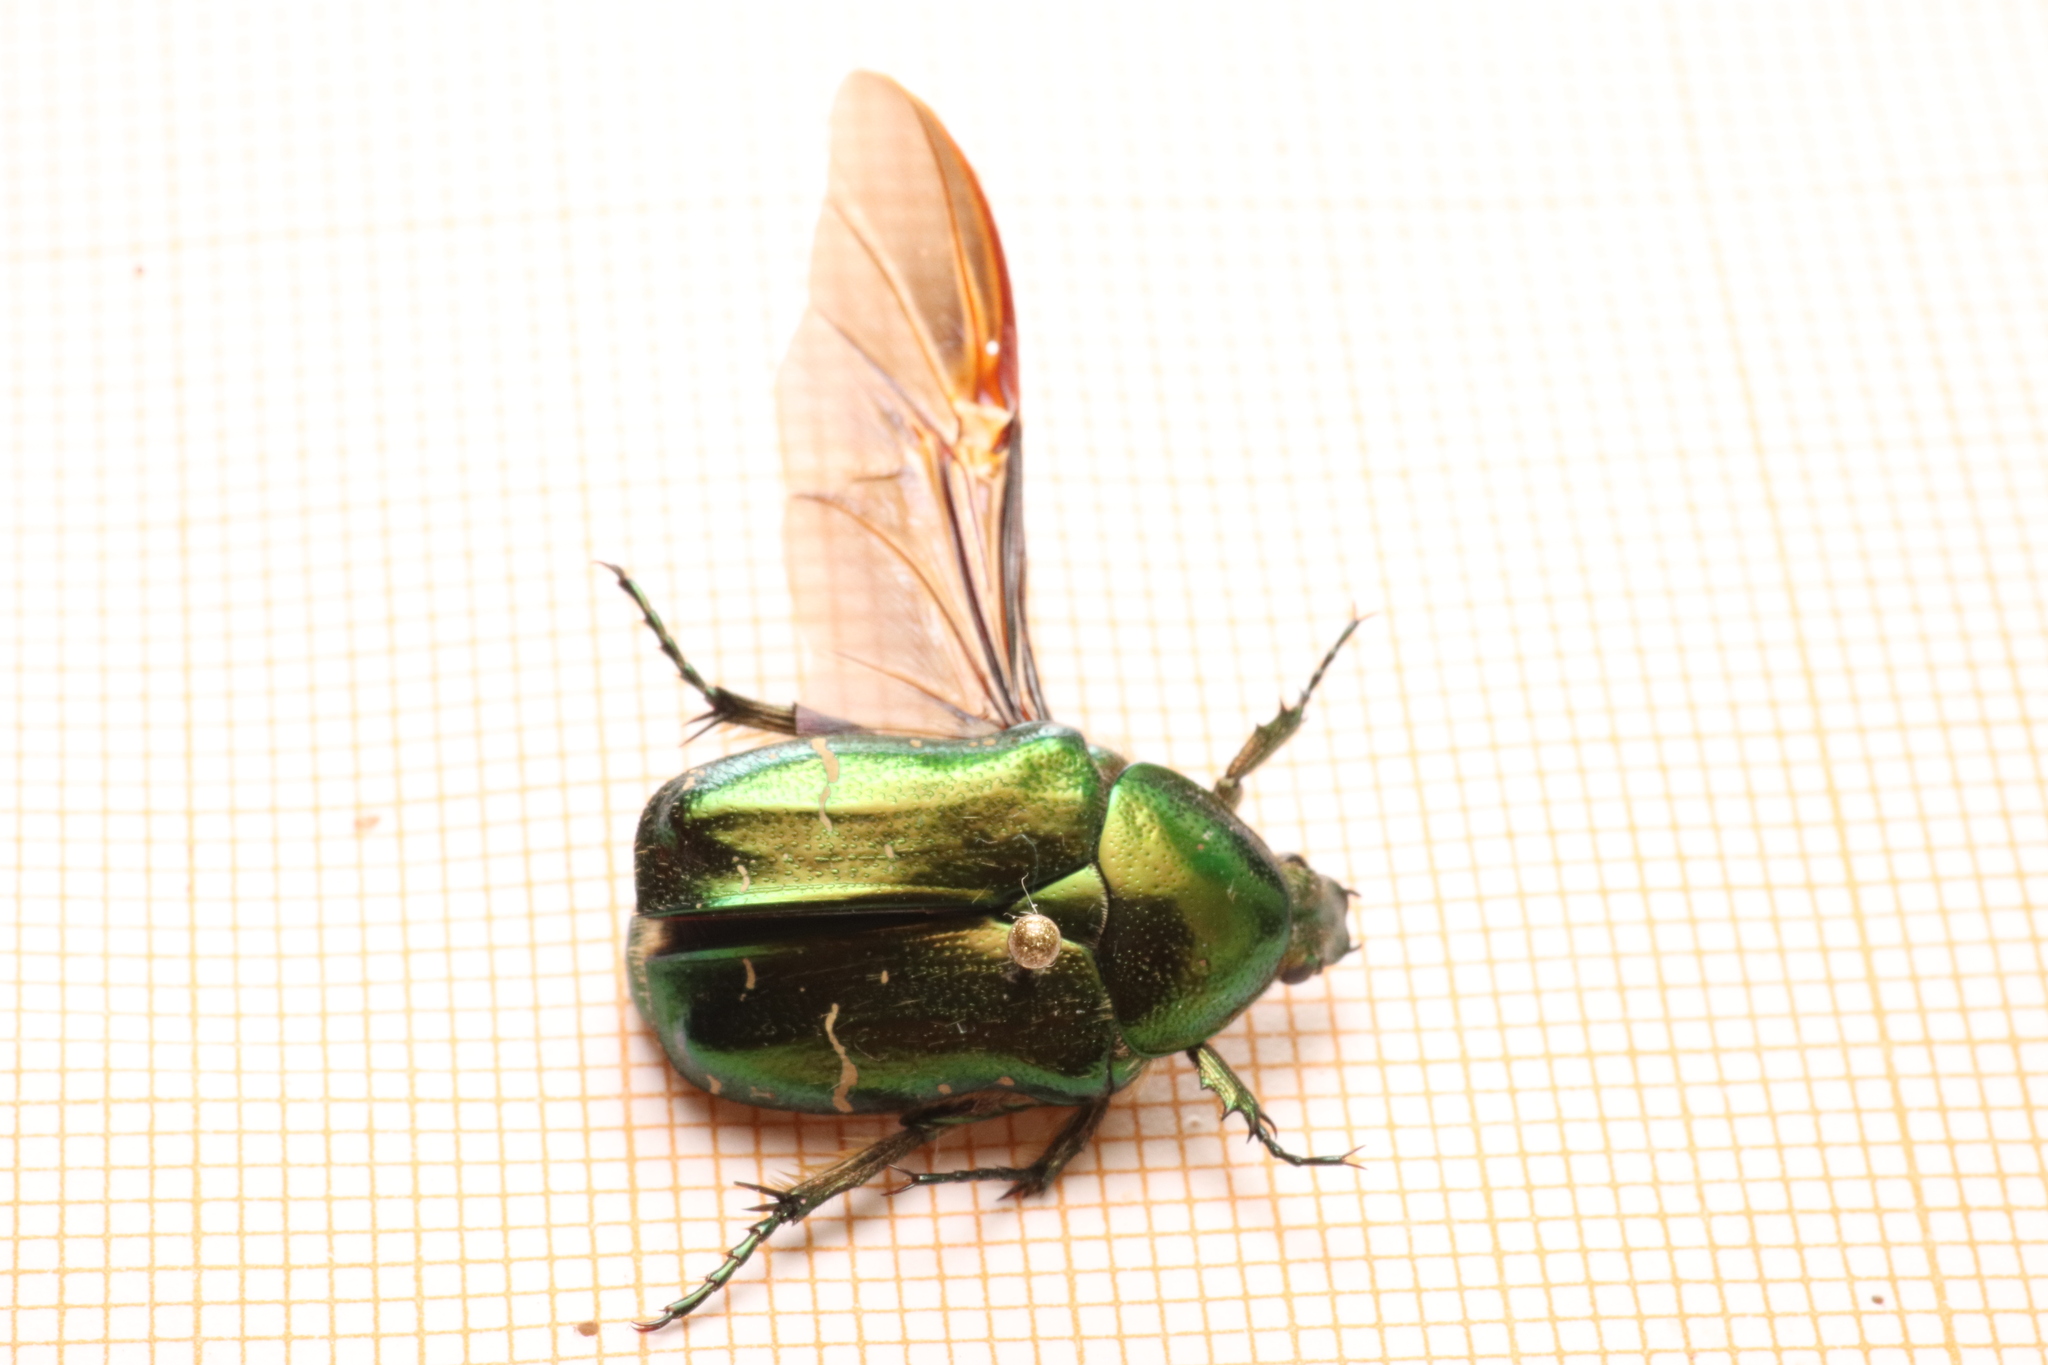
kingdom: Animalia
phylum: Arthropoda
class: Insecta
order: Coleoptera
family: Scarabaeidae
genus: Cetonia
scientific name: Cetonia aurata
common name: Rose chafer
